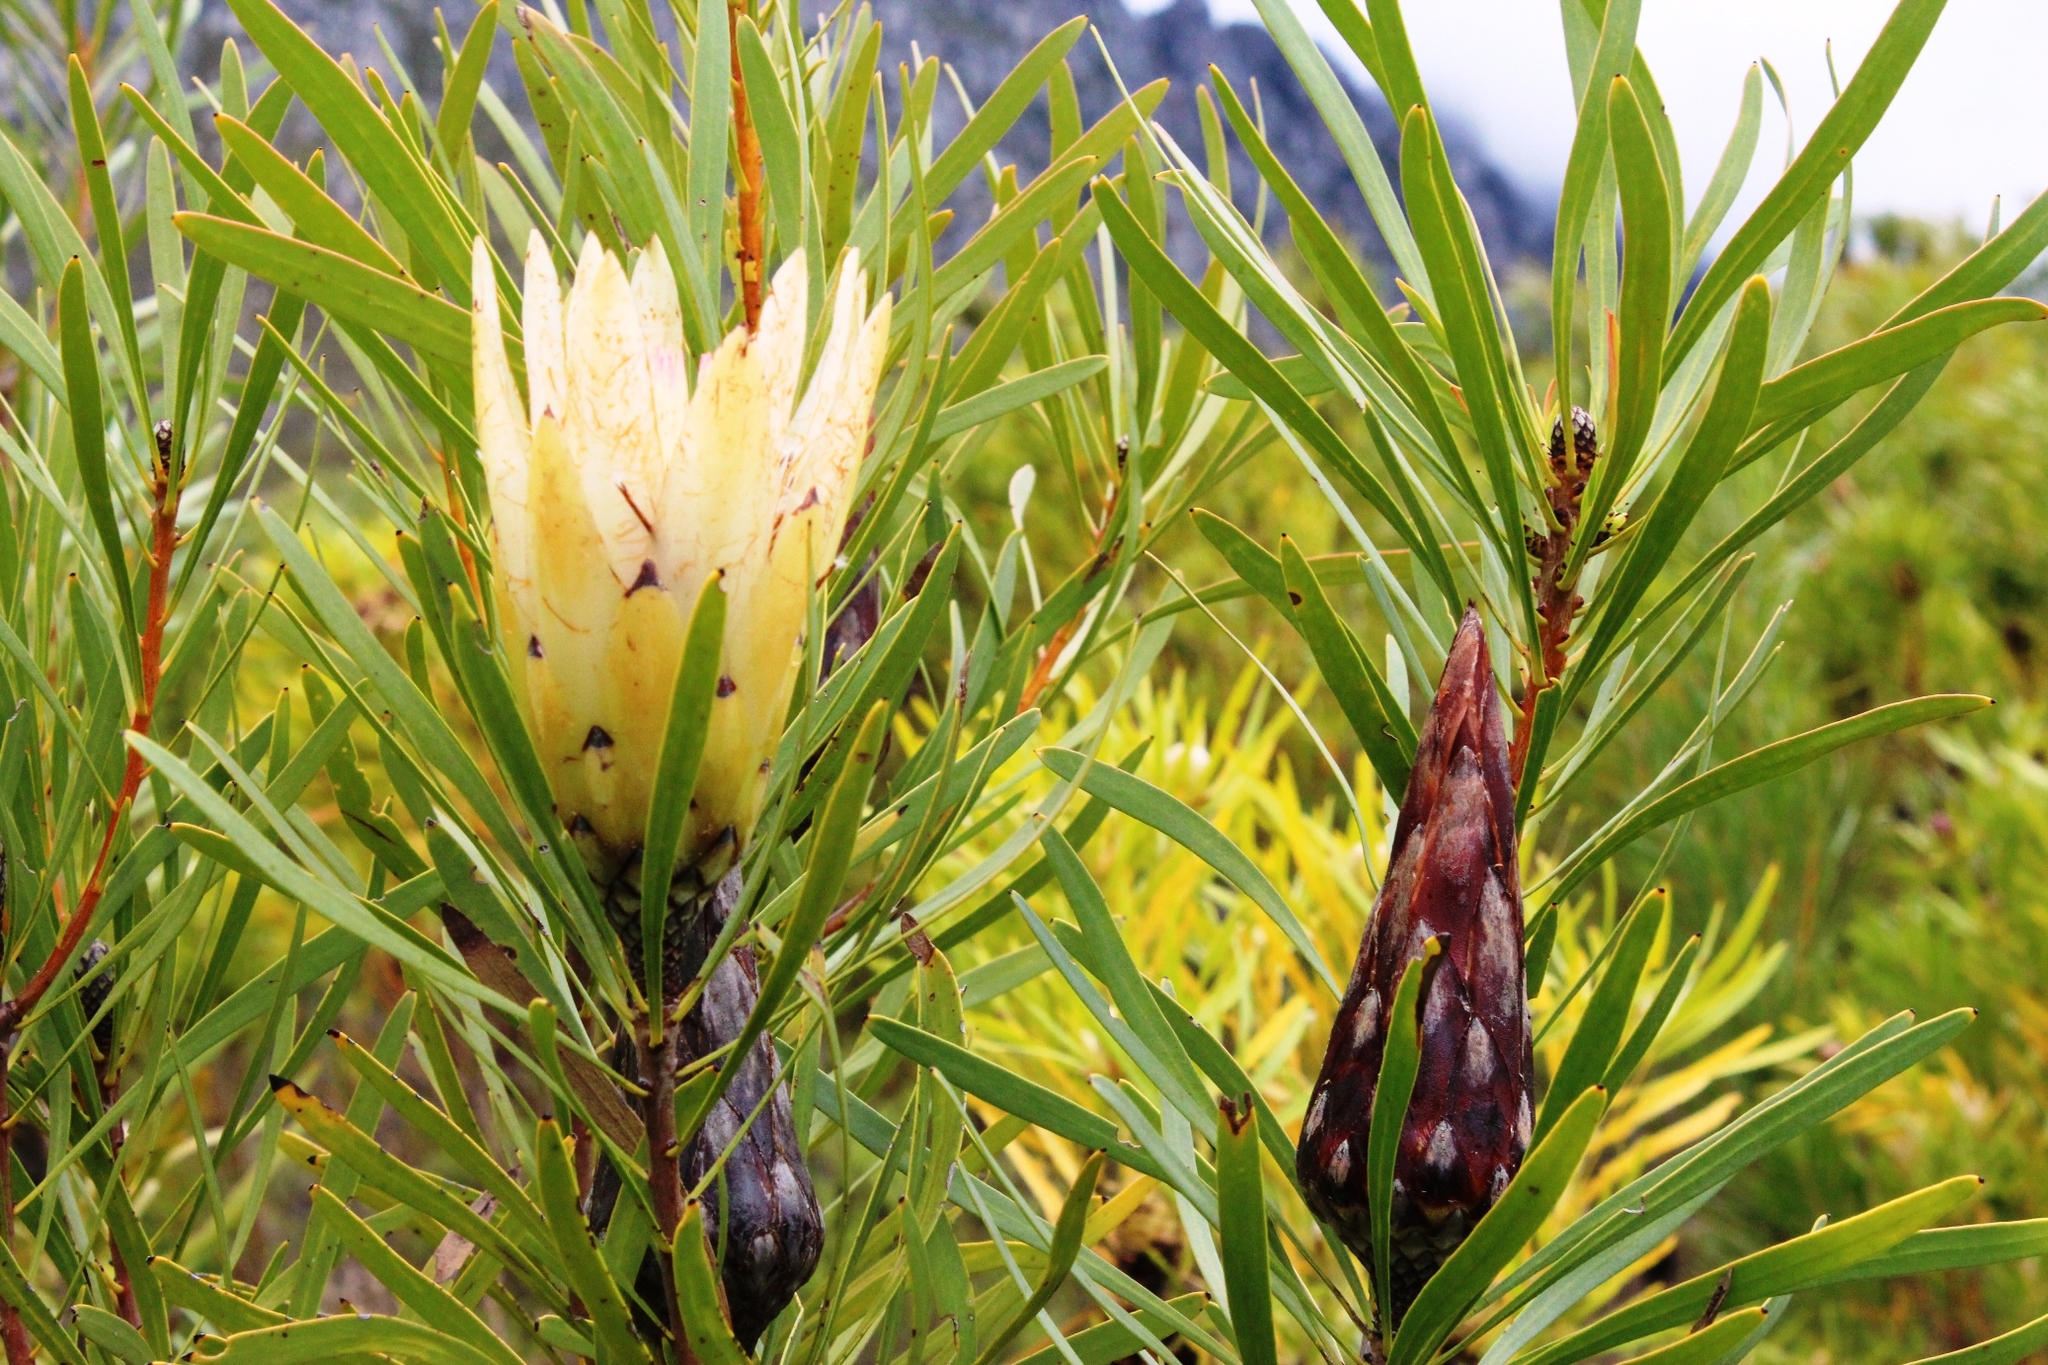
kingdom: Plantae
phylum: Tracheophyta
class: Magnoliopsida
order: Proteales
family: Proteaceae
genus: Protea
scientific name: Protea repens
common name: Sugarbush
